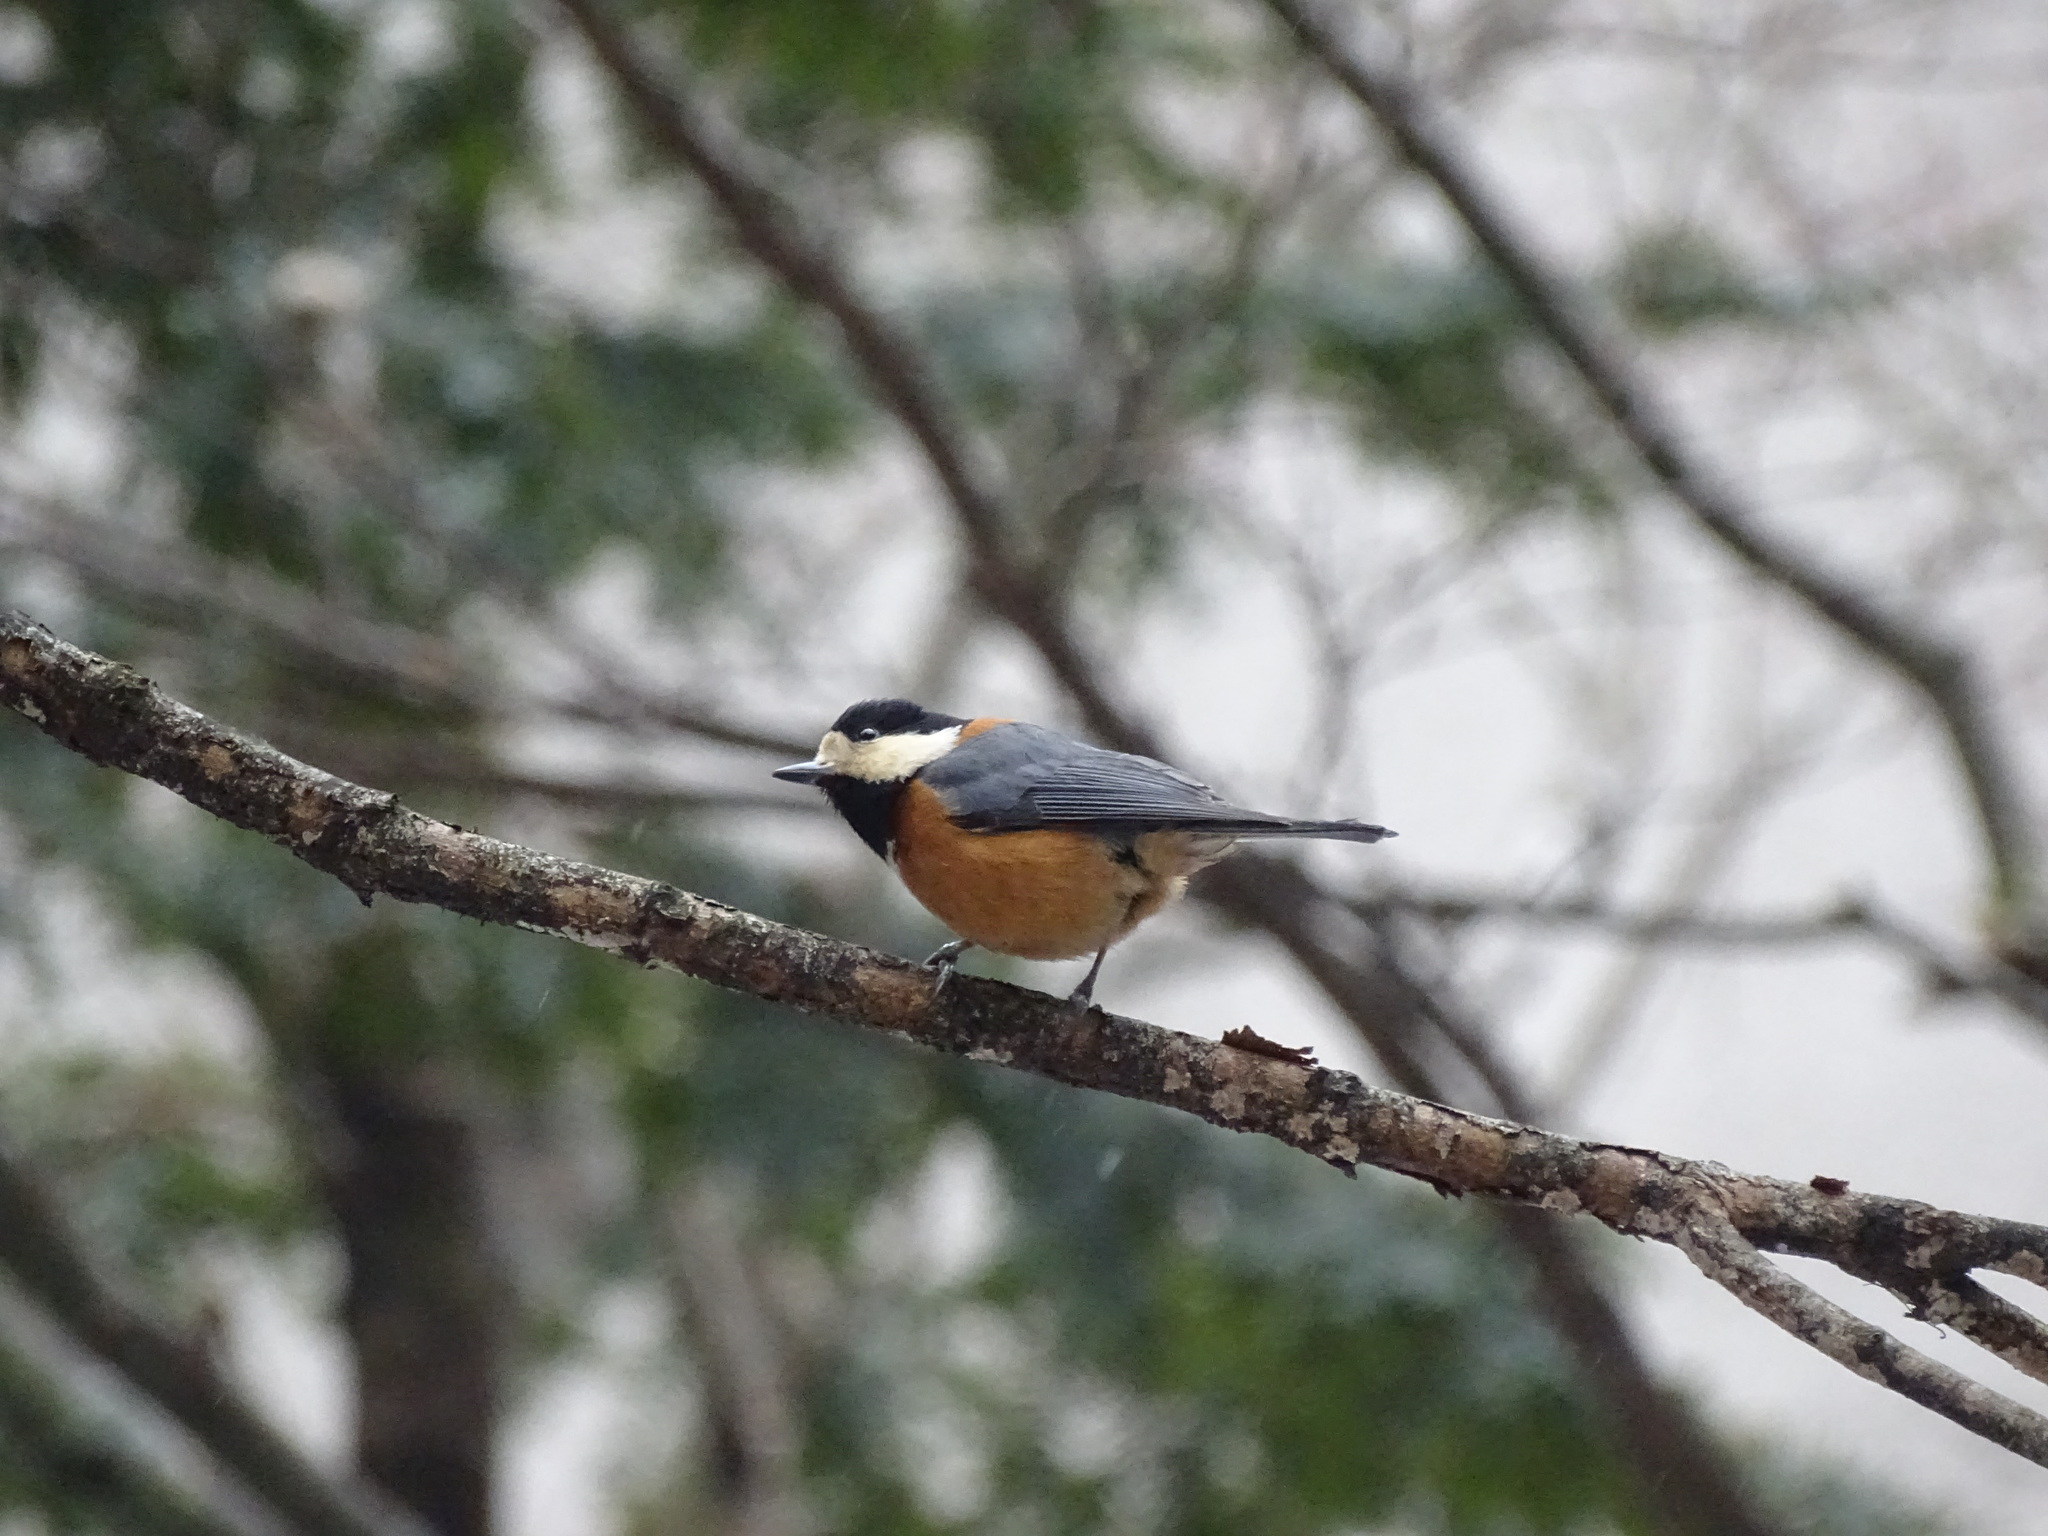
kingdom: Animalia
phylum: Chordata
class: Aves
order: Passeriformes
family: Paridae
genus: Poecile
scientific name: Poecile varius
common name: Varied tit
